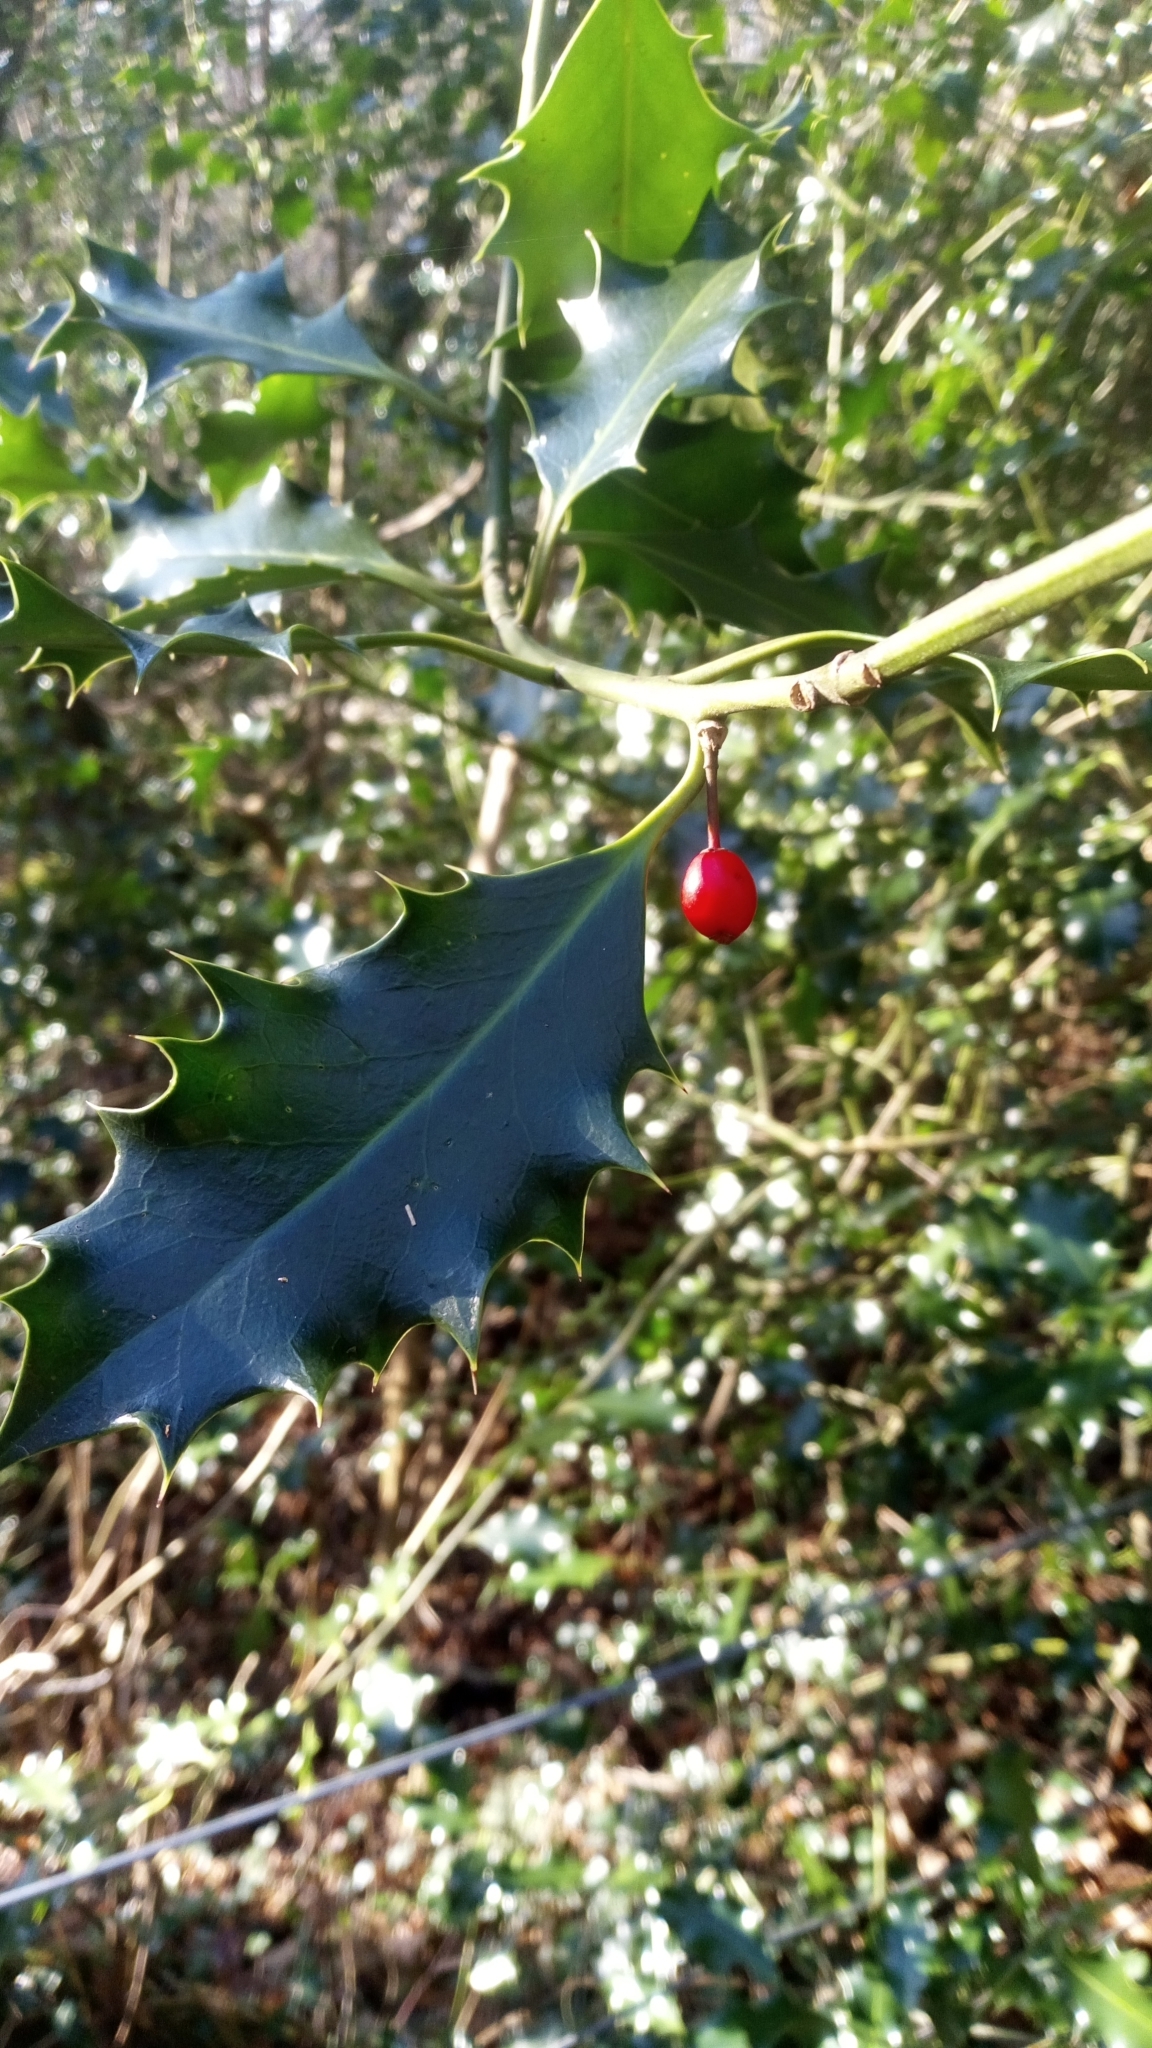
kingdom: Plantae
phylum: Tracheophyta
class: Magnoliopsida
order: Aquifoliales
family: Aquifoliaceae
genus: Ilex
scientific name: Ilex aquifolium
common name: English holly
